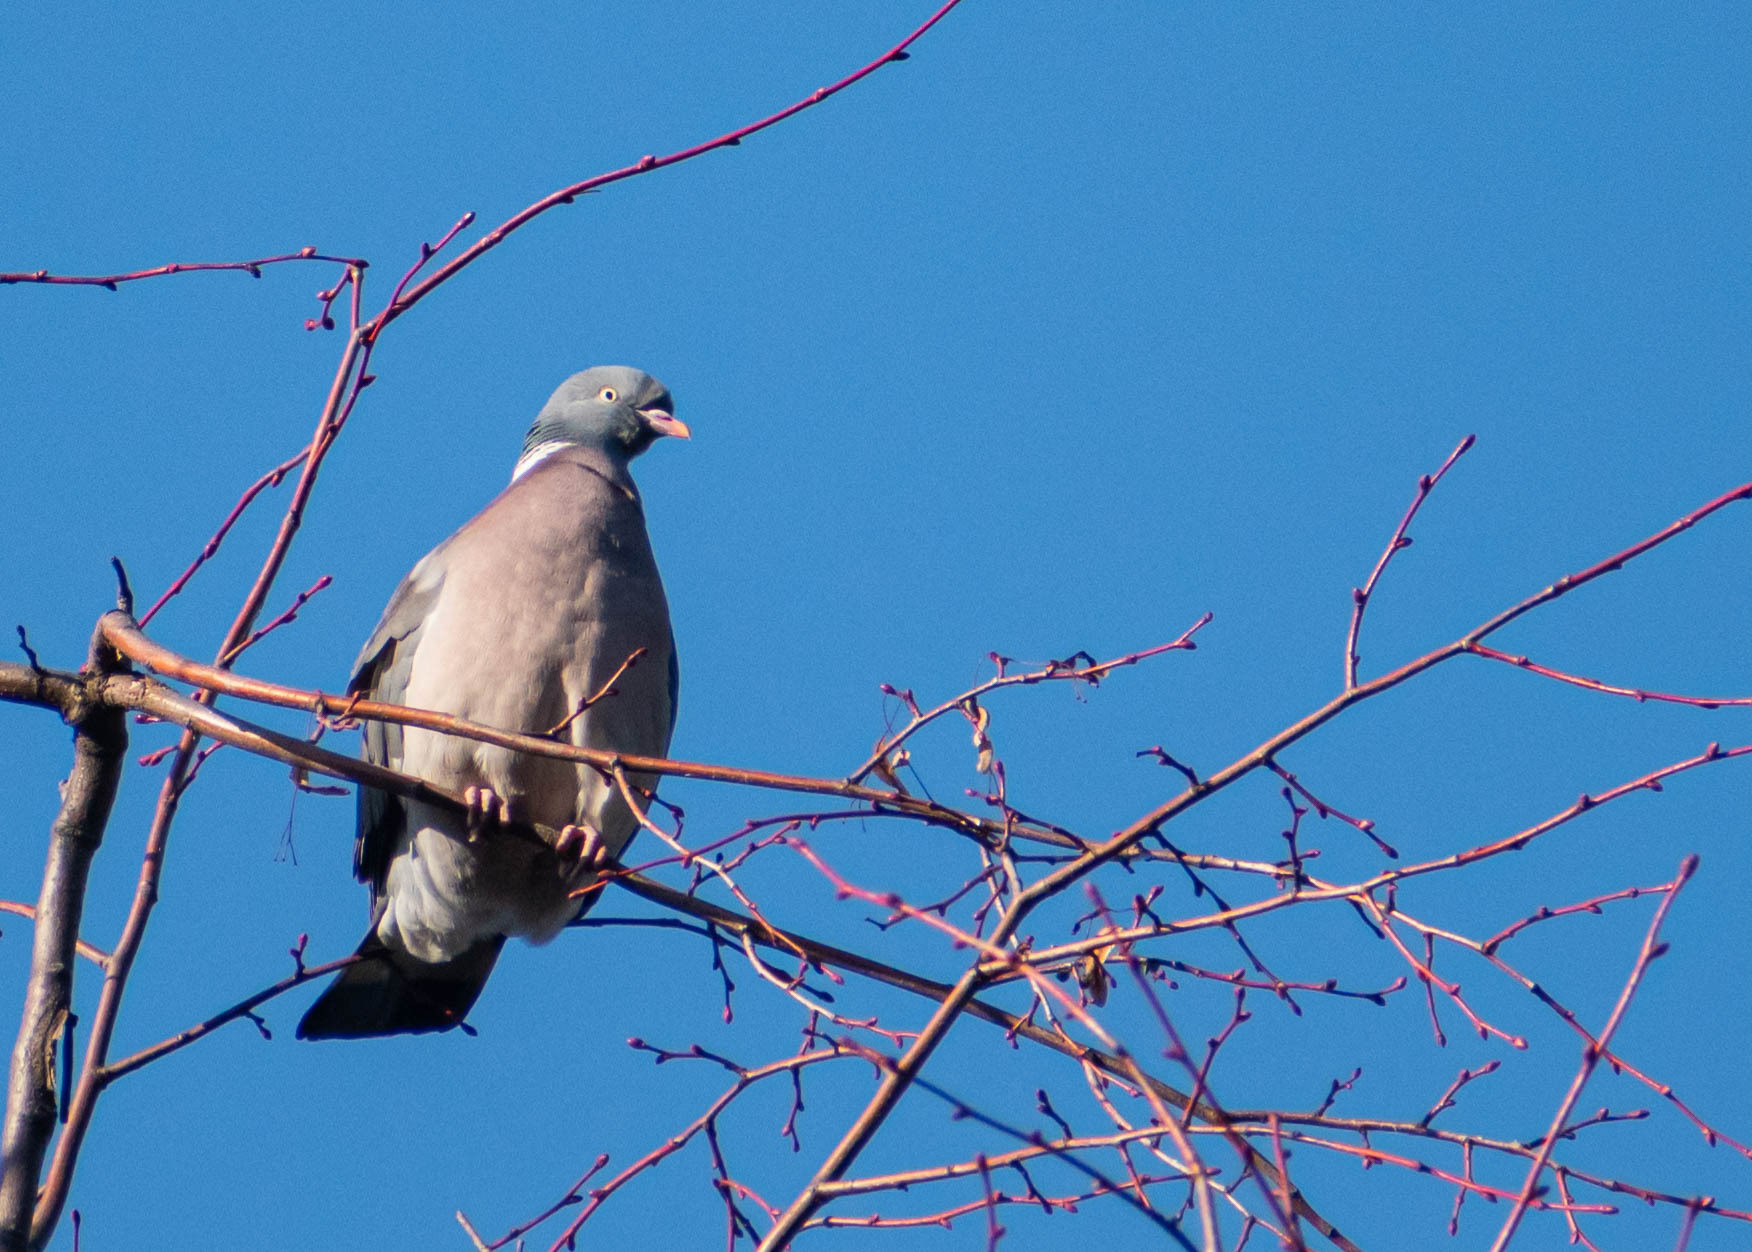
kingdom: Animalia
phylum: Chordata
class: Aves
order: Columbiformes
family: Columbidae
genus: Columba
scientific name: Columba palumbus
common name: Common wood pigeon
